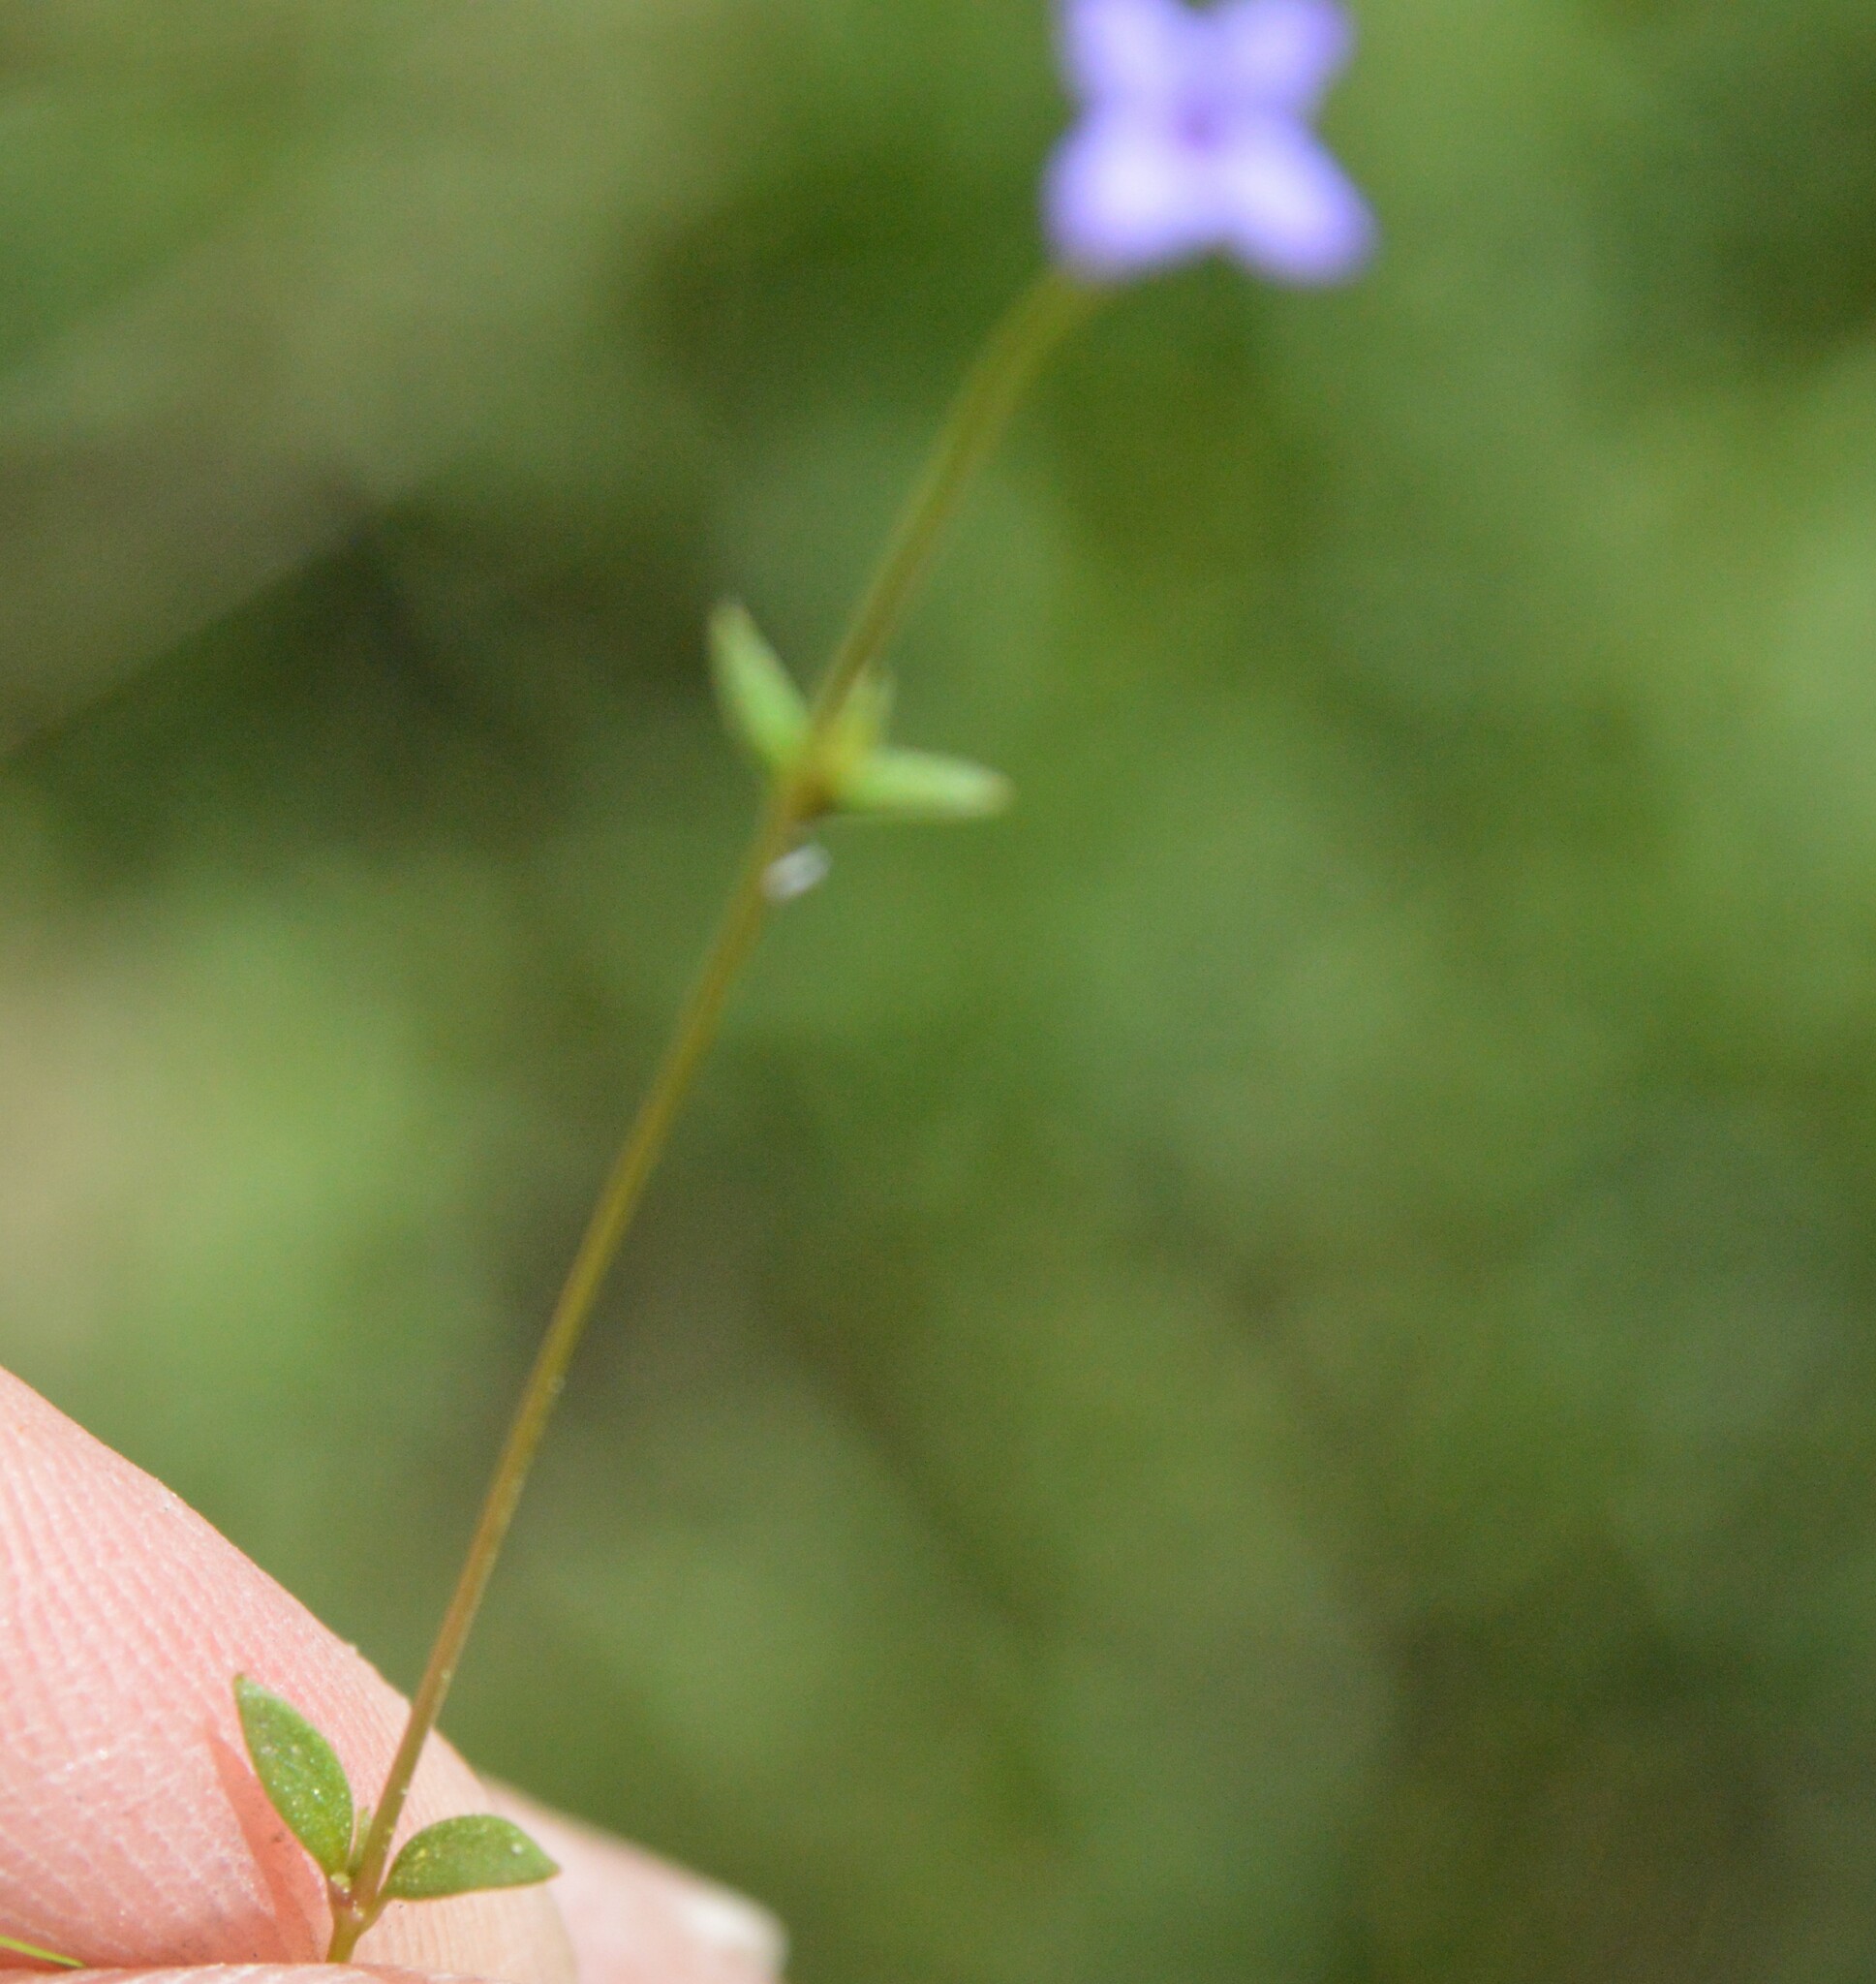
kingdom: Plantae
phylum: Tracheophyta
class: Magnoliopsida
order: Gentianales
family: Rubiaceae
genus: Houstonia
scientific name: Houstonia pusilla
